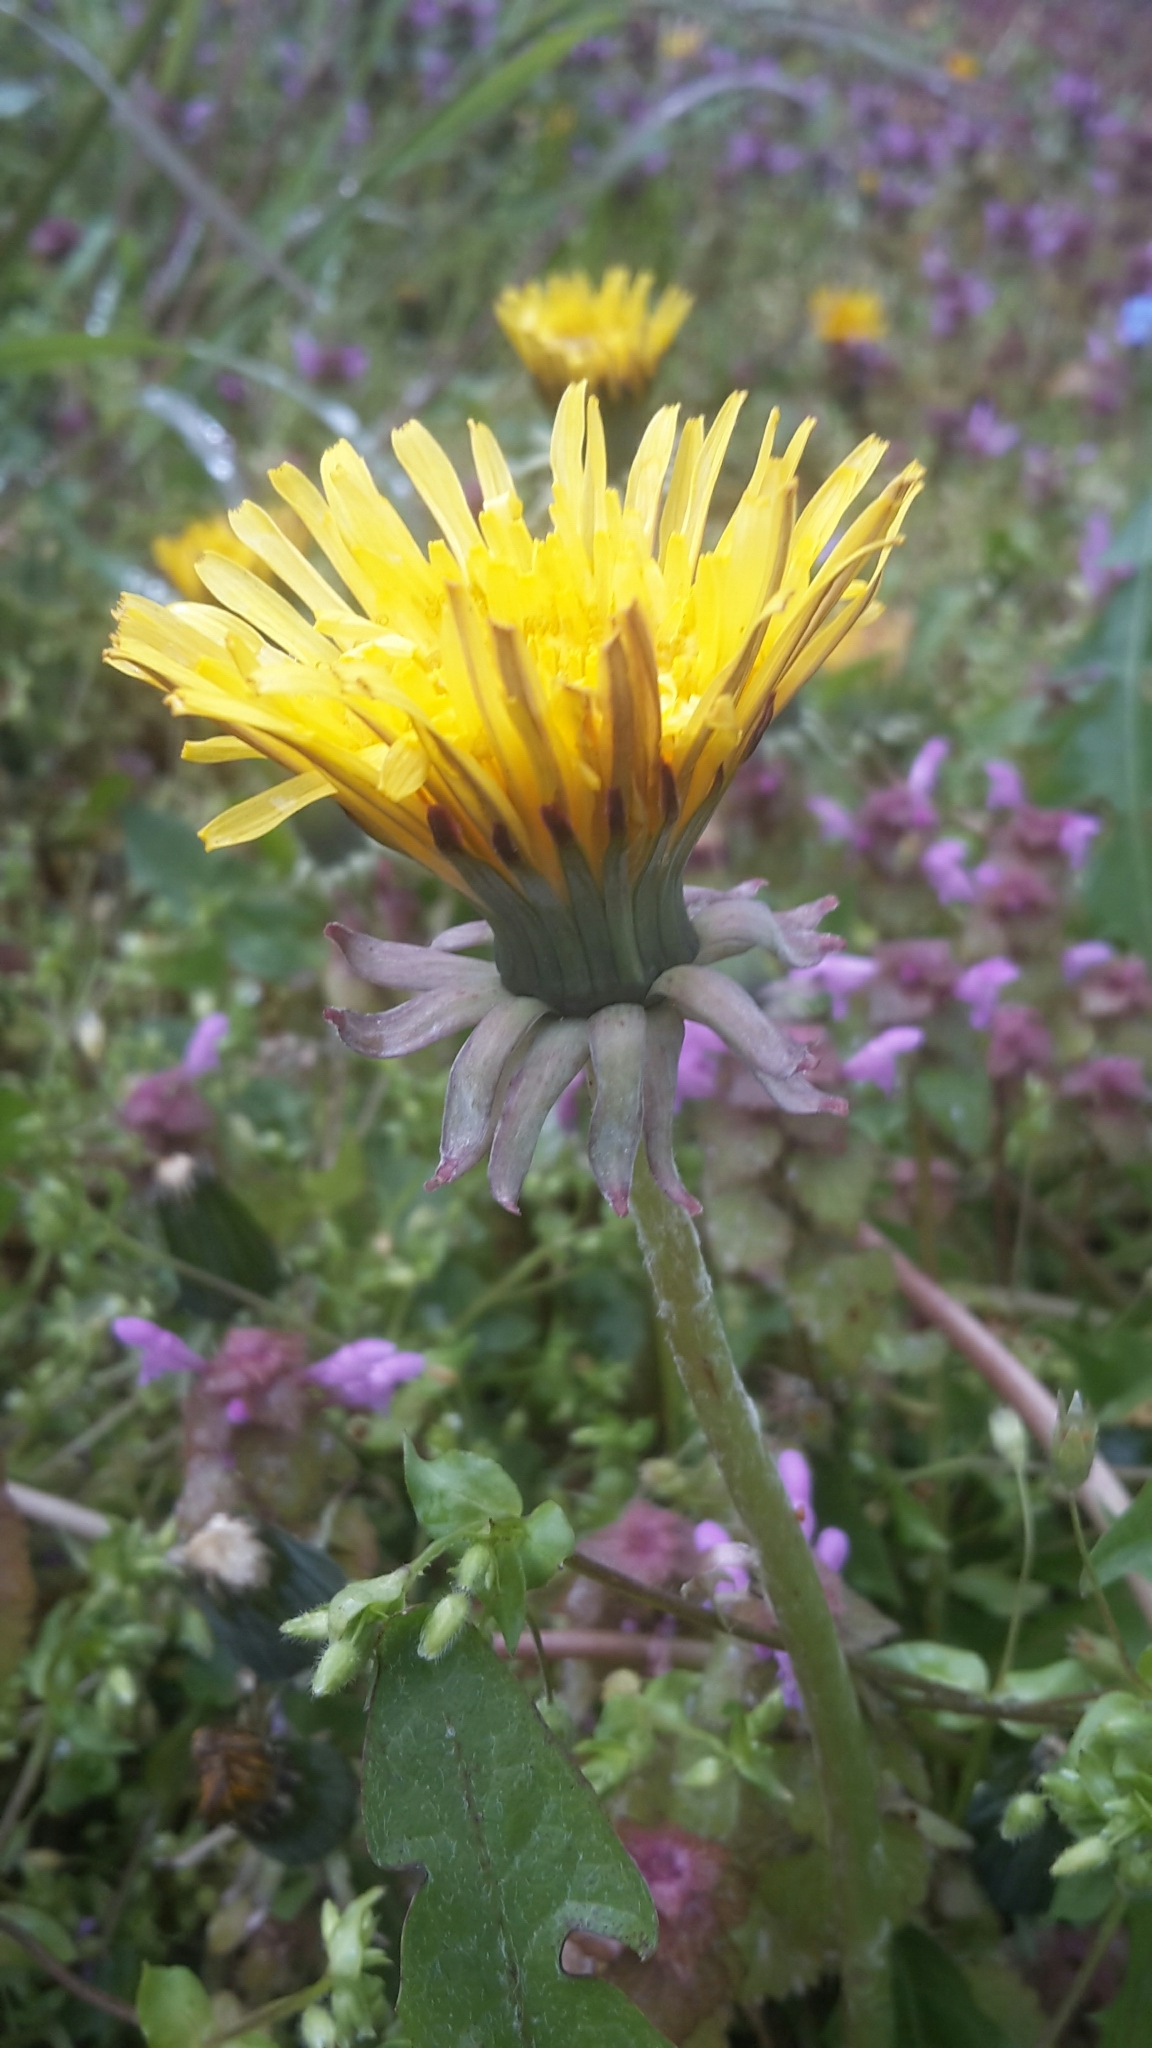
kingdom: Plantae
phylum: Tracheophyta
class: Magnoliopsida
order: Asterales
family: Asteraceae
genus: Taraxacum
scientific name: Taraxacum officinale
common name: Common dandelion
